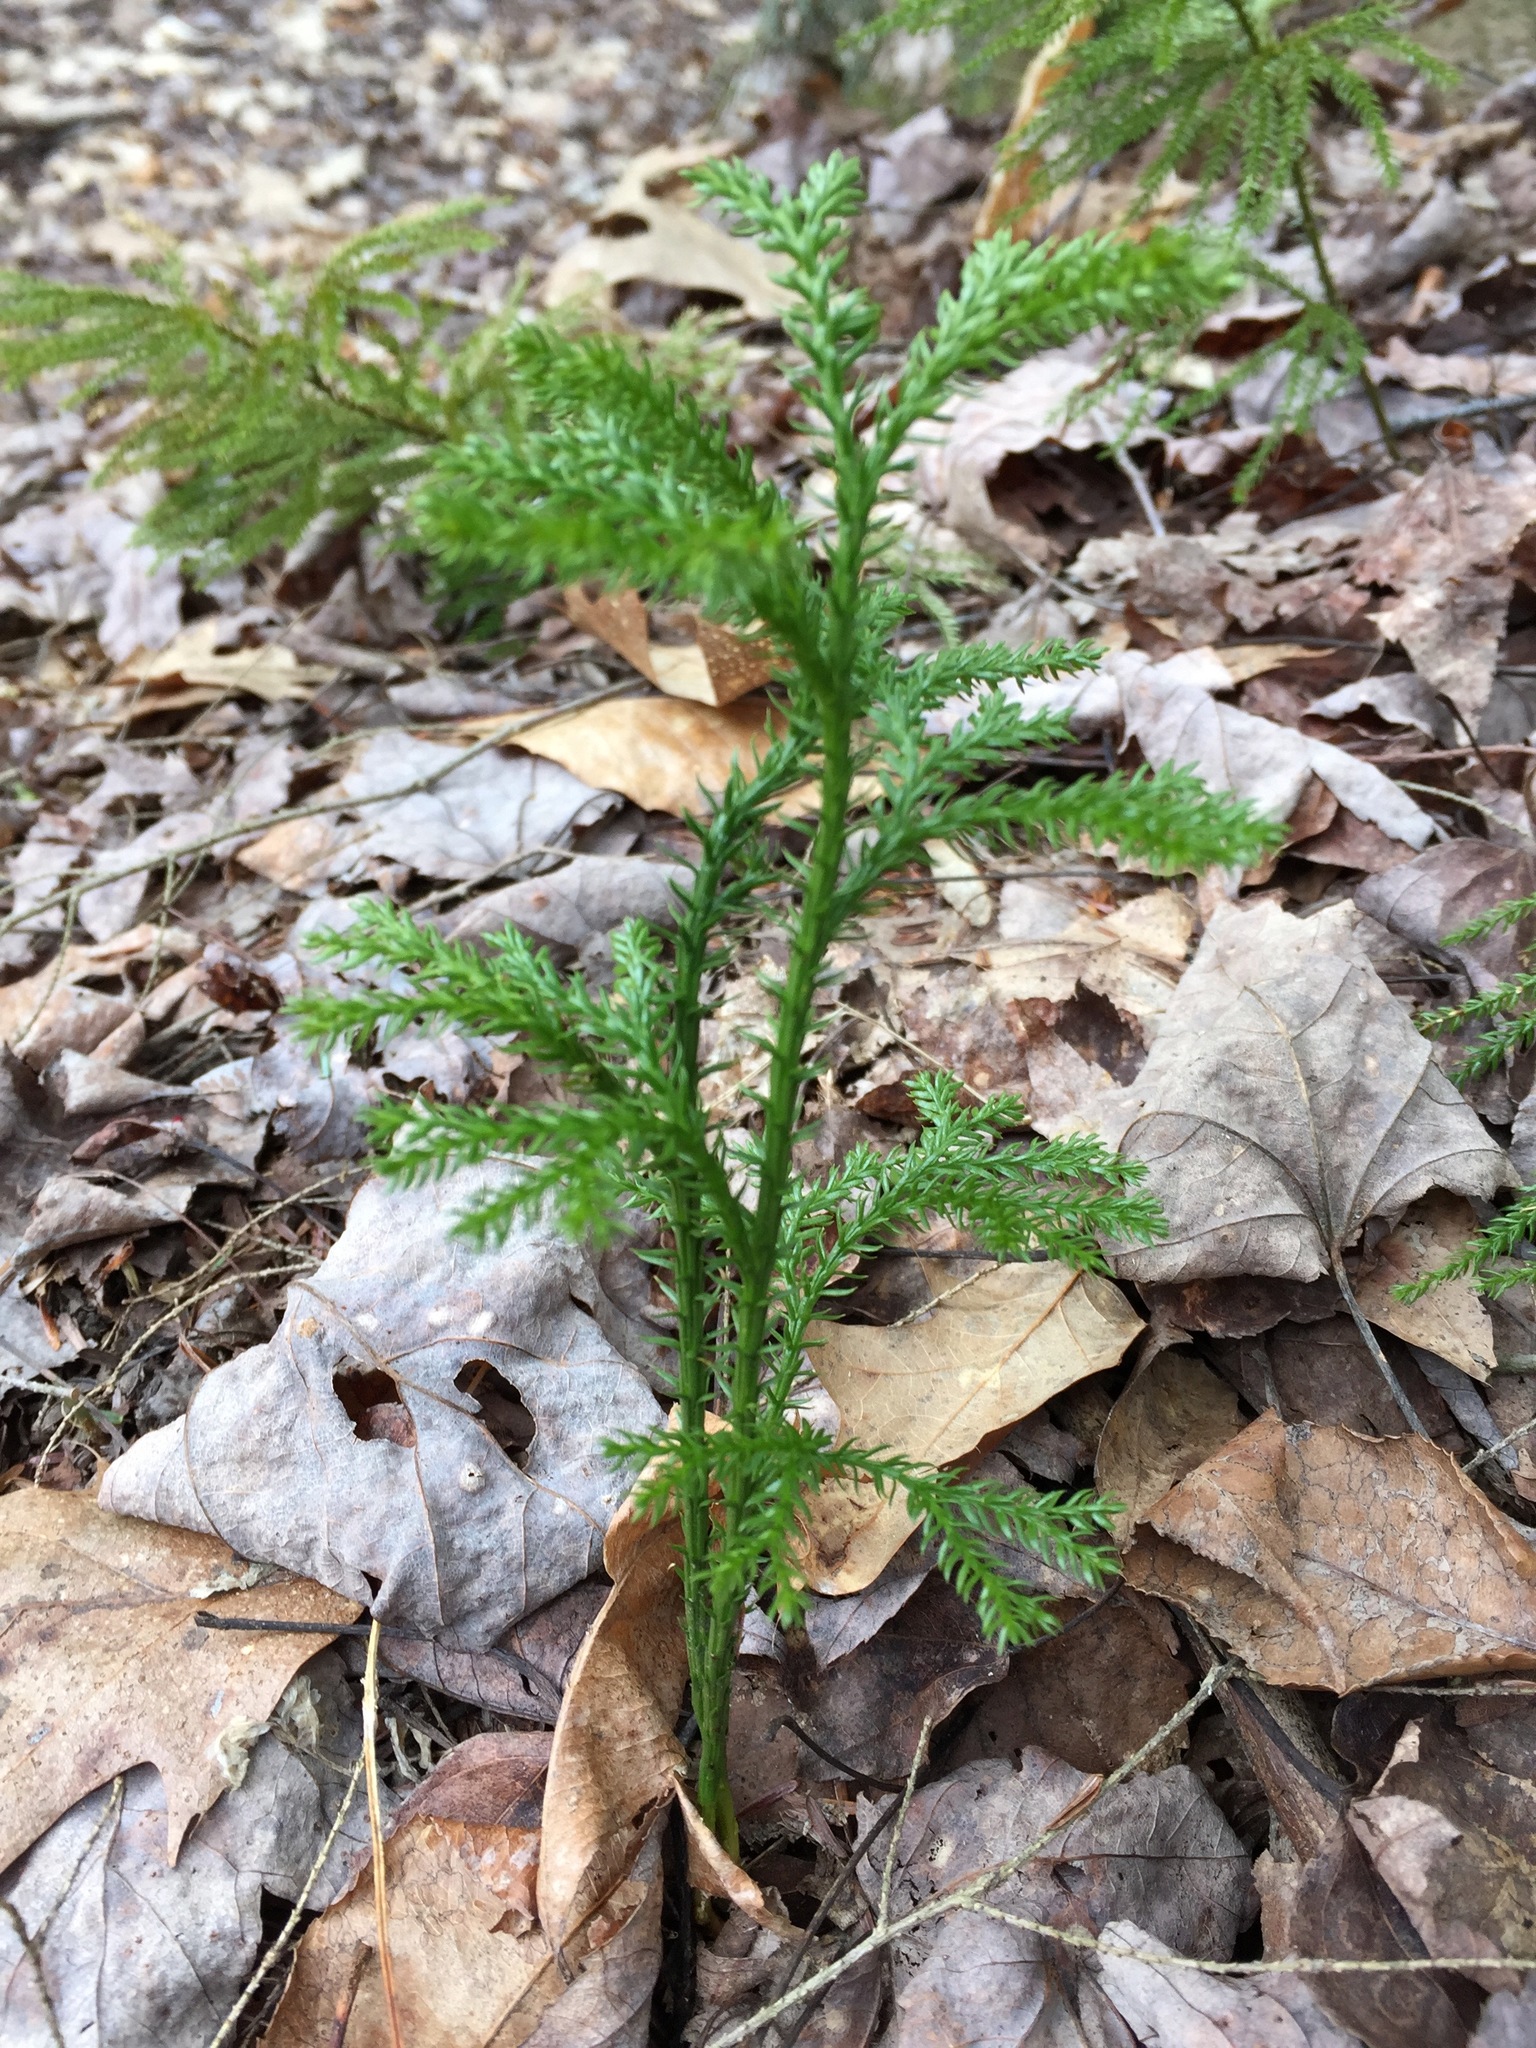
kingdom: Plantae
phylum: Tracheophyta
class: Lycopodiopsida
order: Lycopodiales
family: Lycopodiaceae
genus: Dendrolycopodium
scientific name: Dendrolycopodium dendroideum
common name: Northern tree-clubmoss
